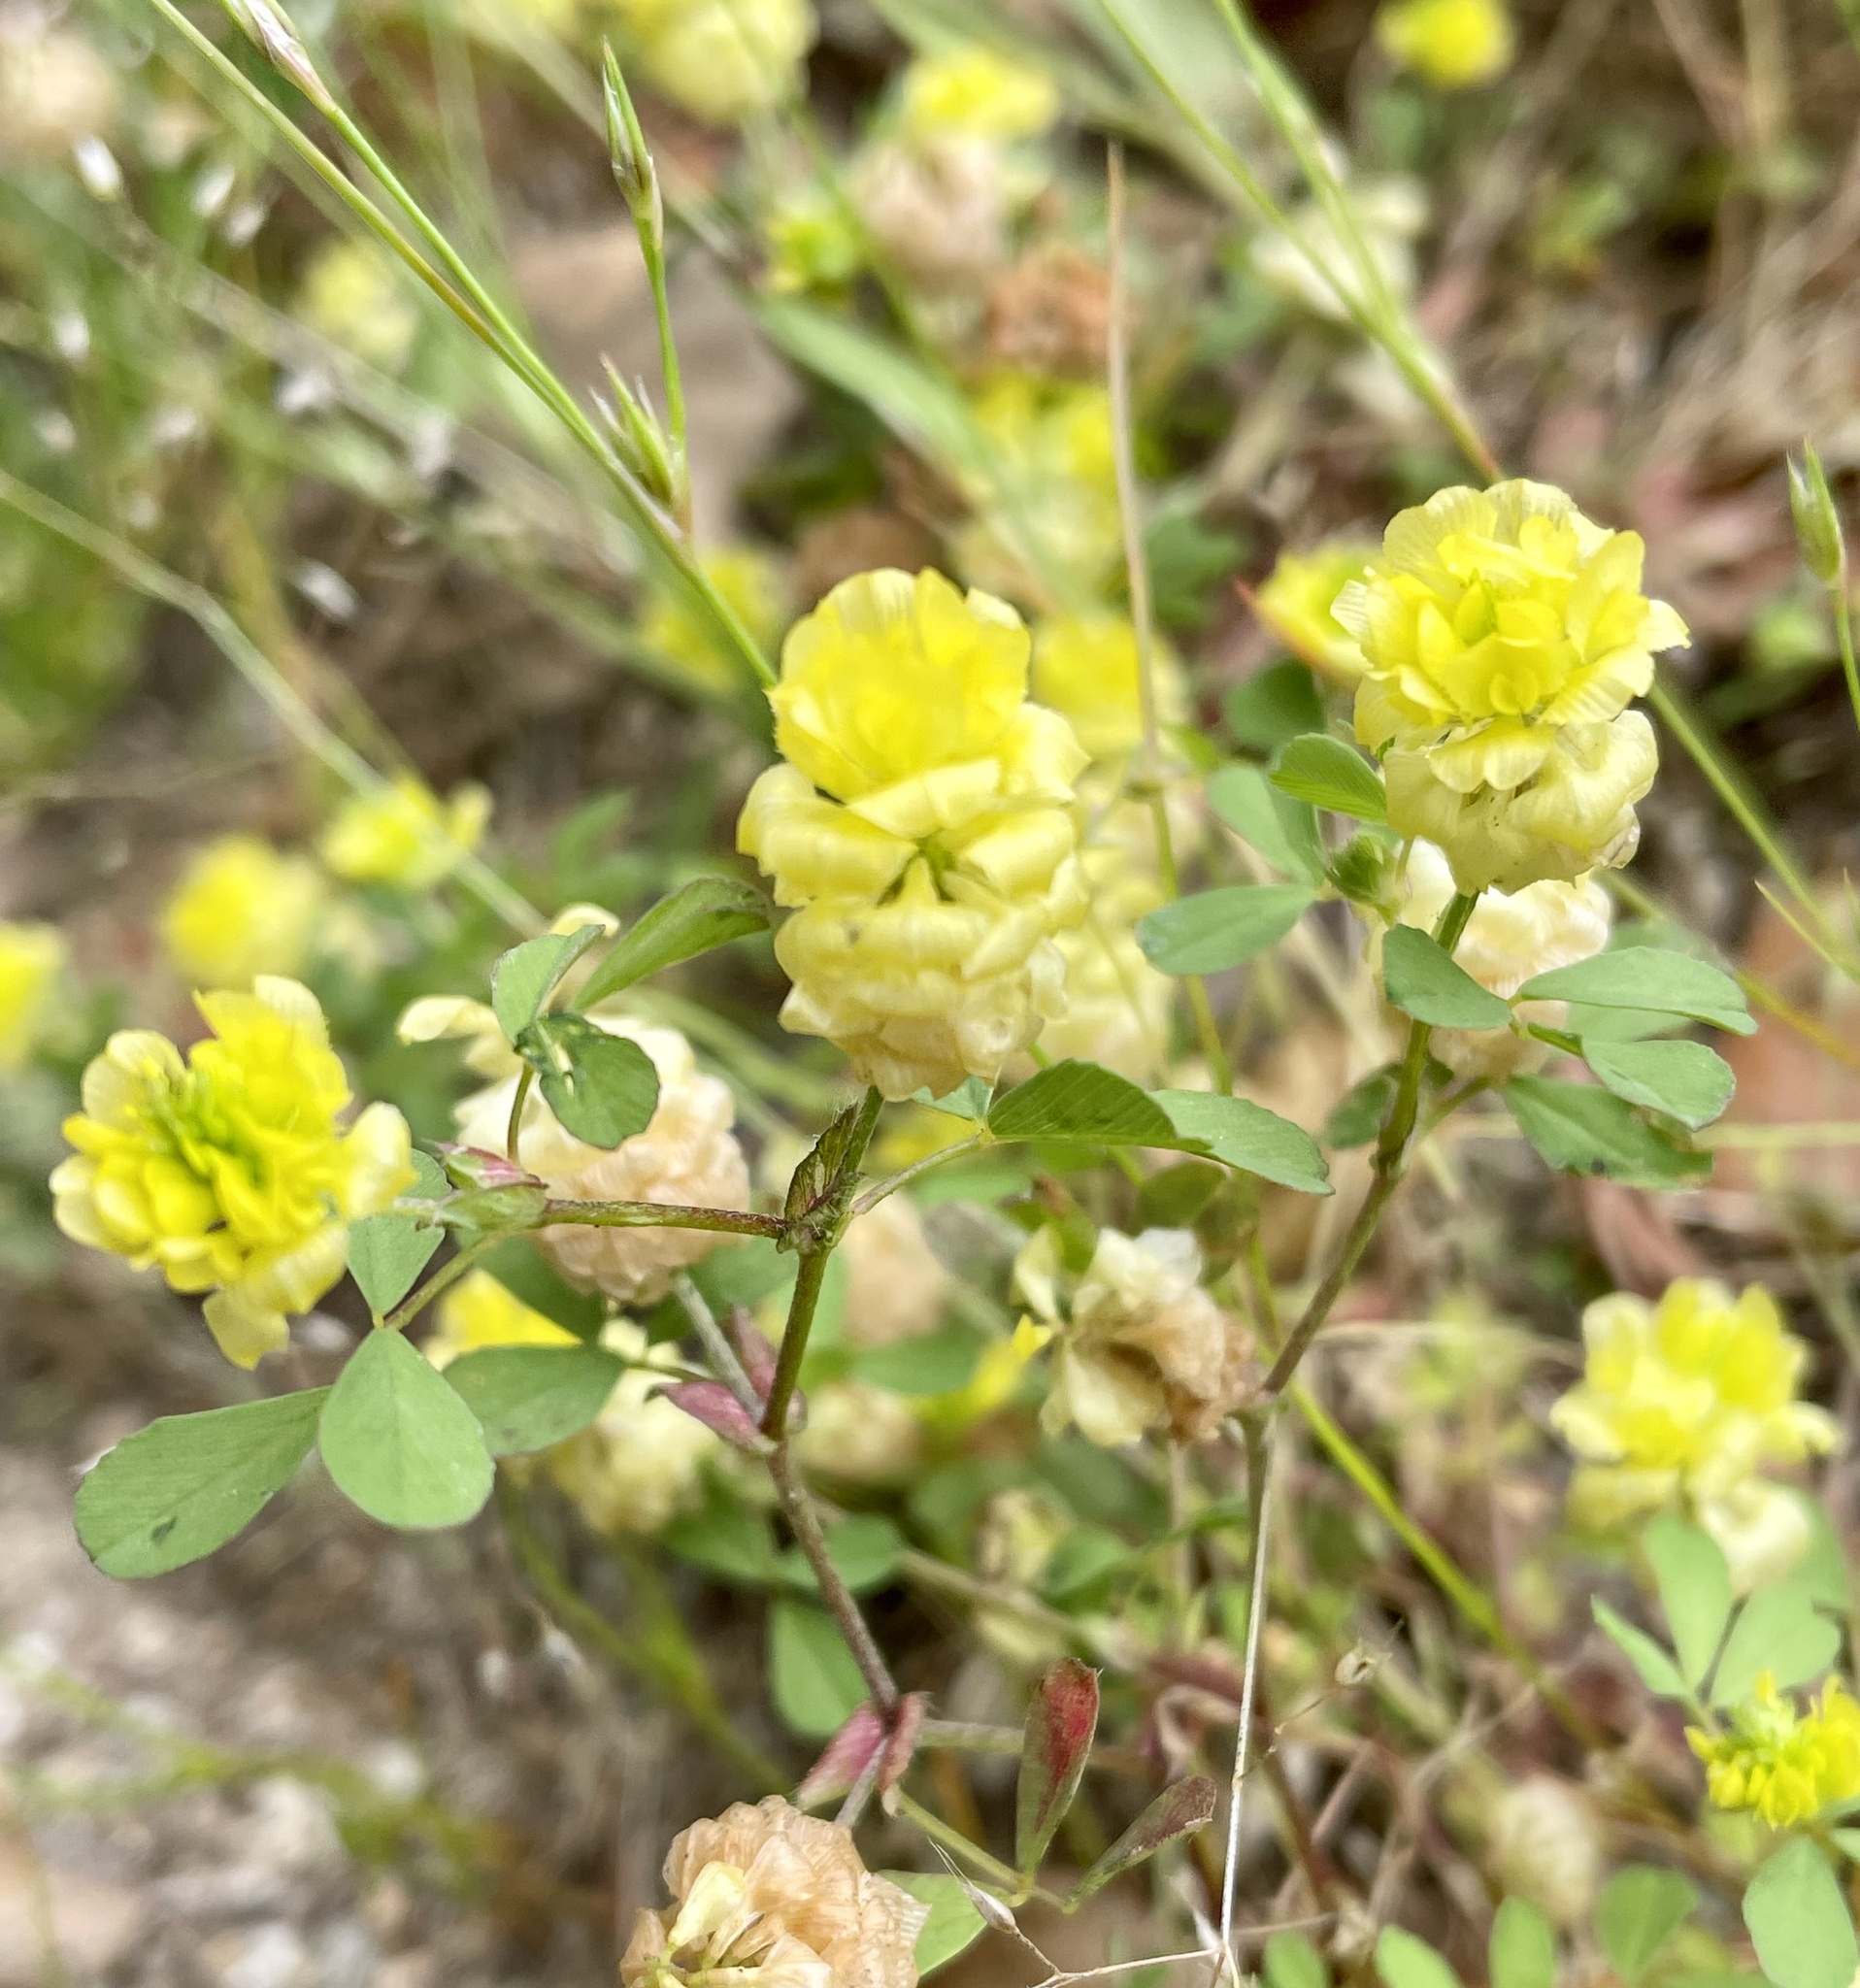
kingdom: Plantae
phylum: Tracheophyta
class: Magnoliopsida
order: Fabales
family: Fabaceae
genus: Trifolium
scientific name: Trifolium campestre
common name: Field clover
